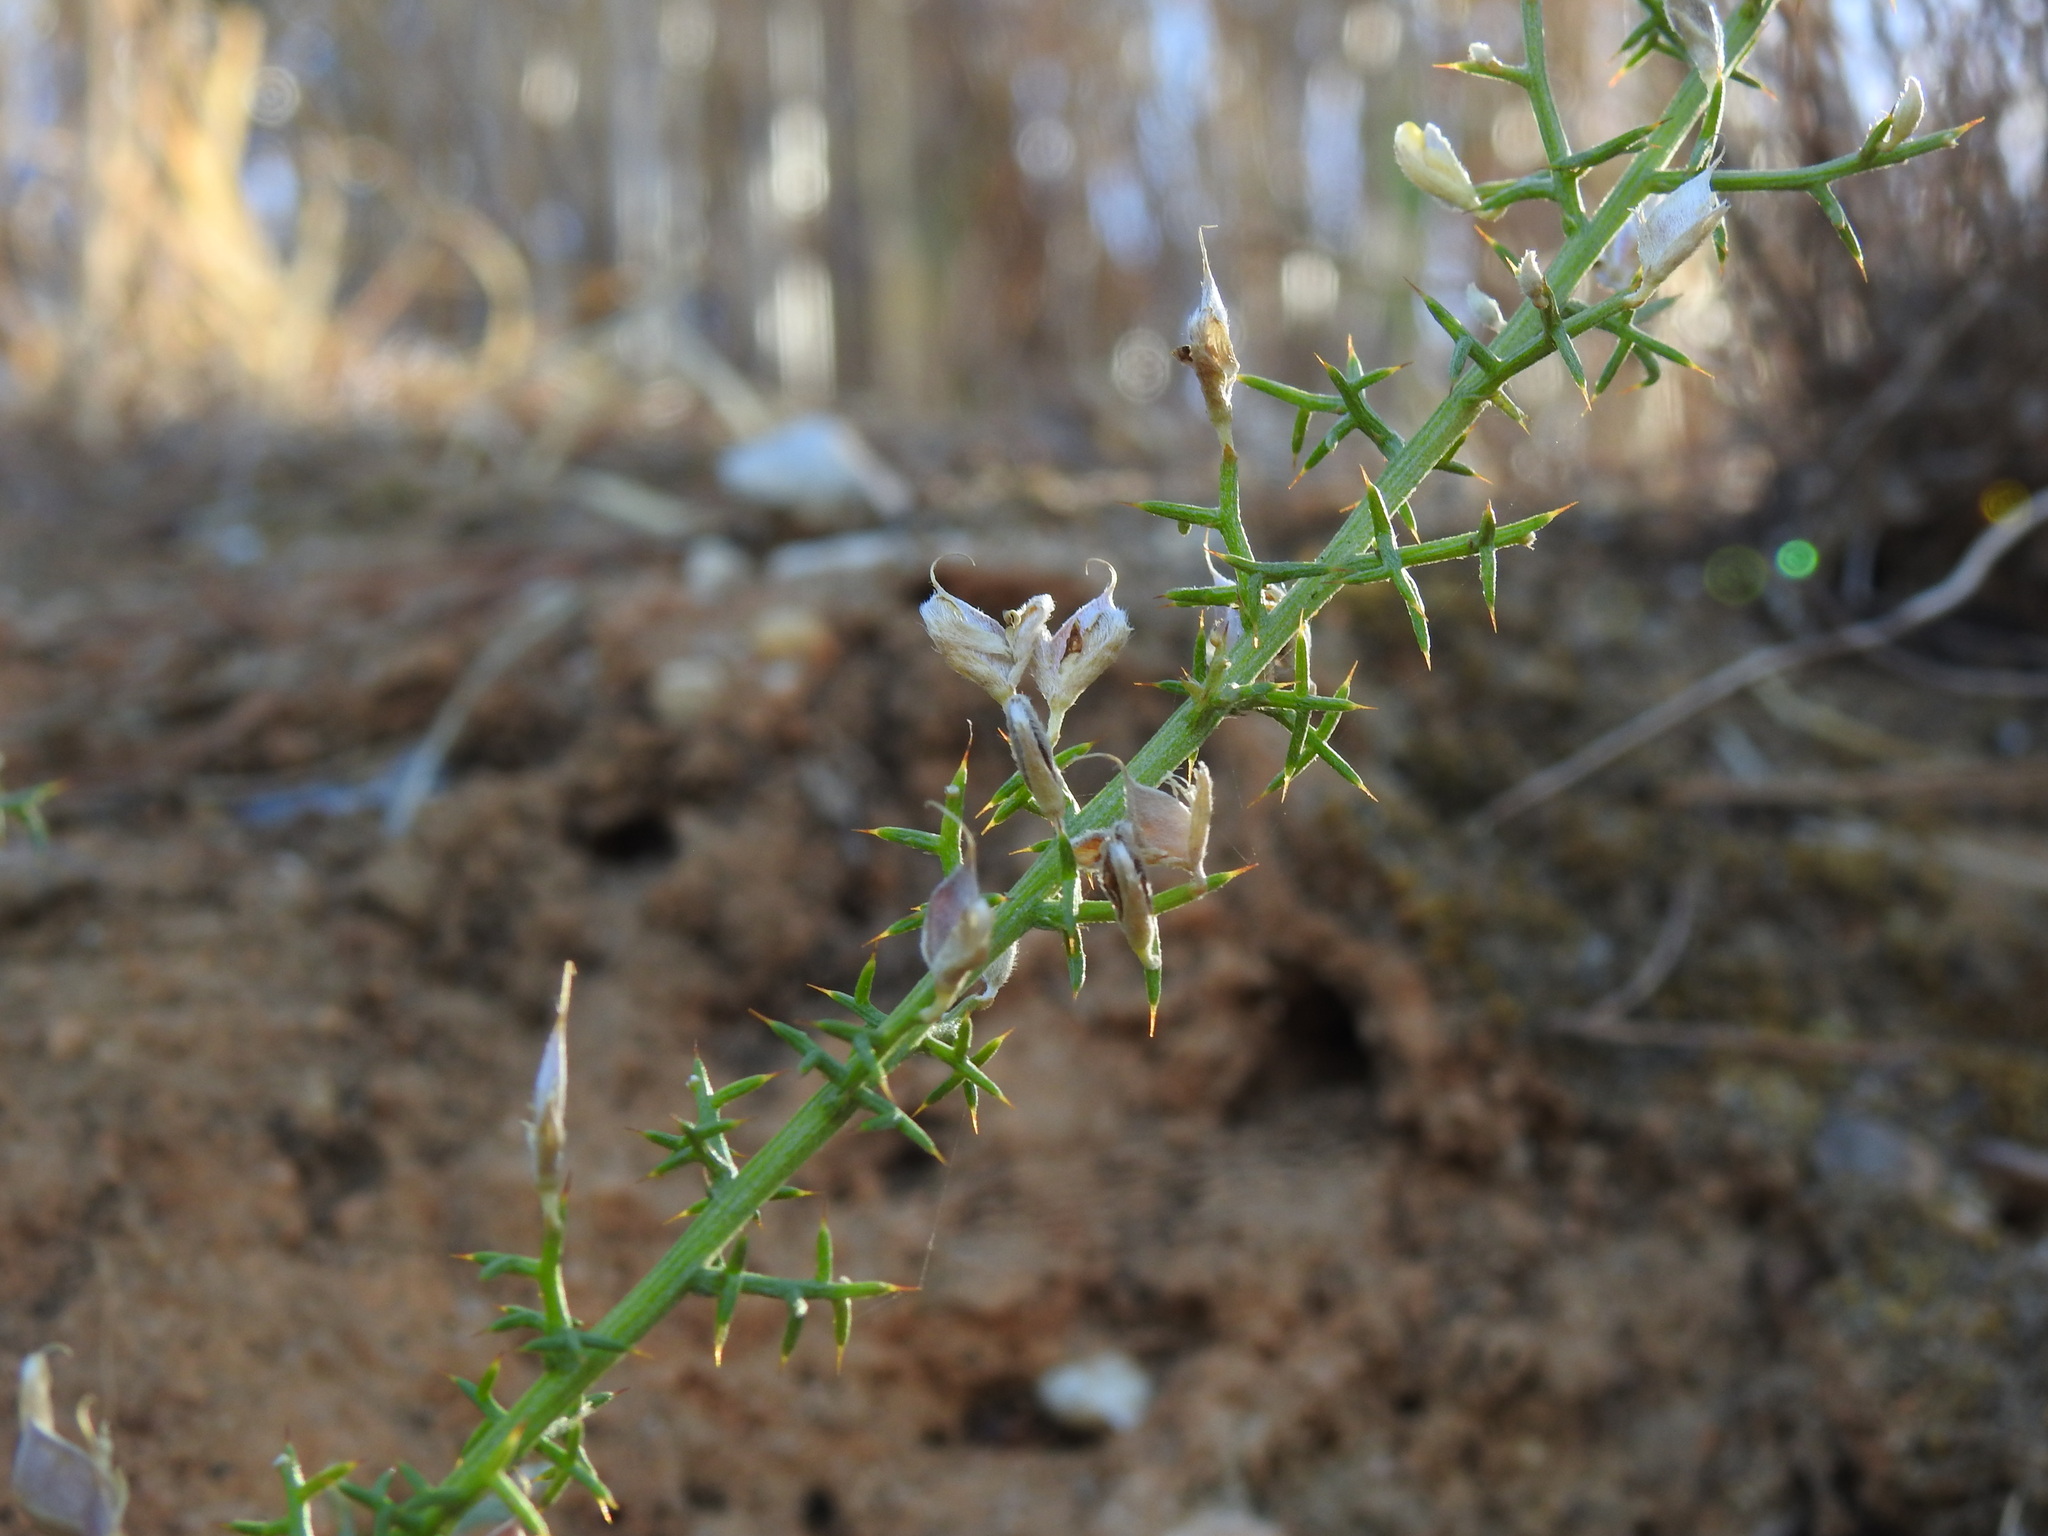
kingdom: Plantae
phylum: Tracheophyta
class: Magnoliopsida
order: Fabales
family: Fabaceae
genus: Stauracanthus
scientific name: Stauracanthus boivinii
